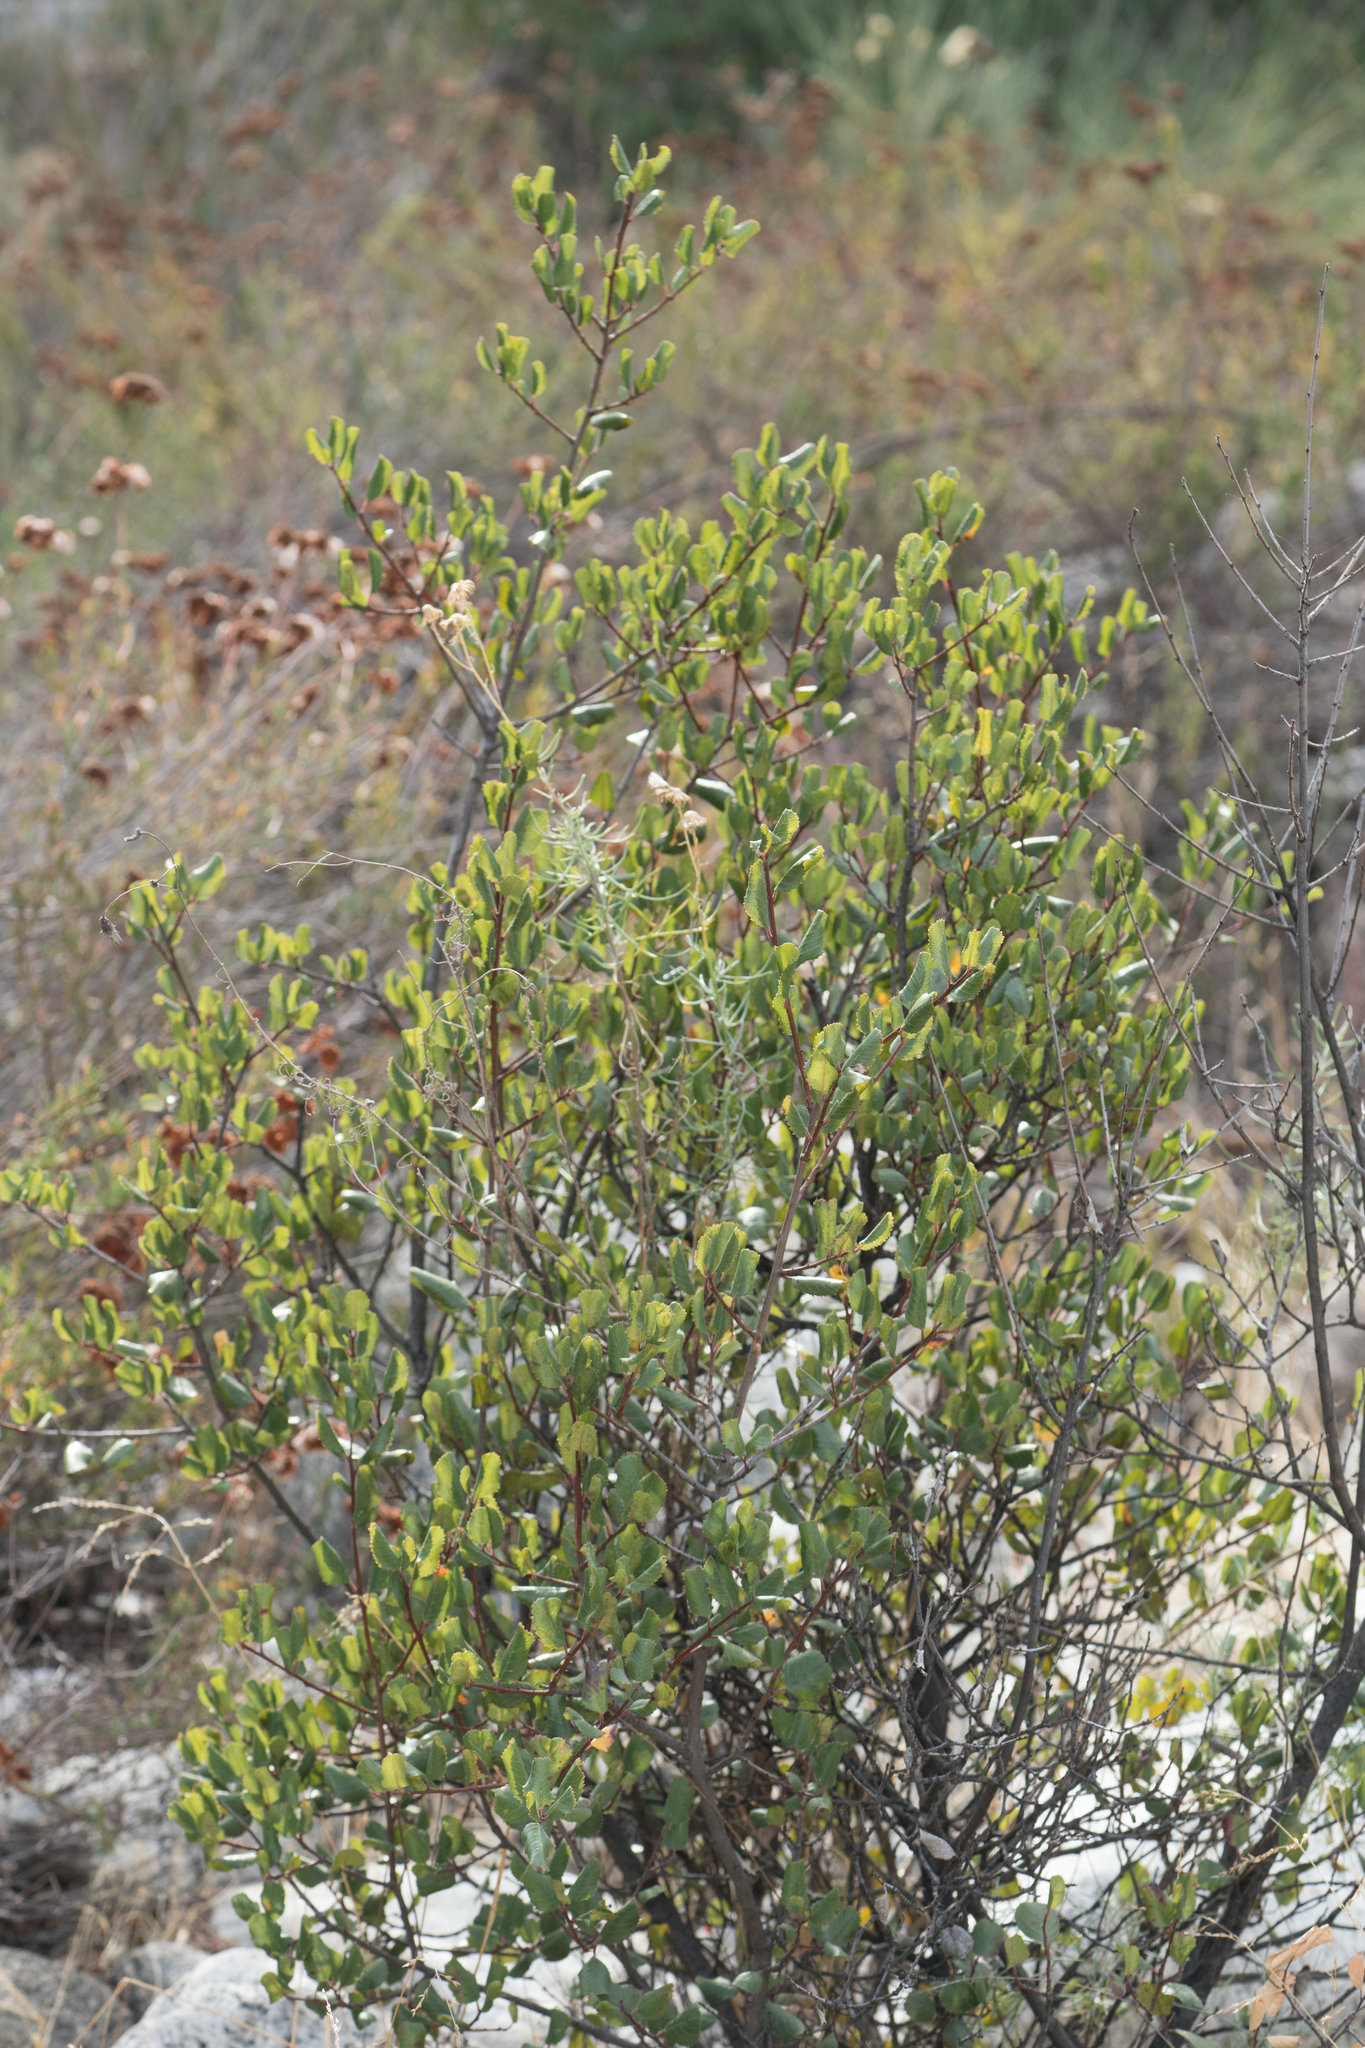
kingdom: Plantae
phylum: Tracheophyta
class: Magnoliopsida
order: Rosales
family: Rhamnaceae
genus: Endotropis
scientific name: Endotropis crocea
